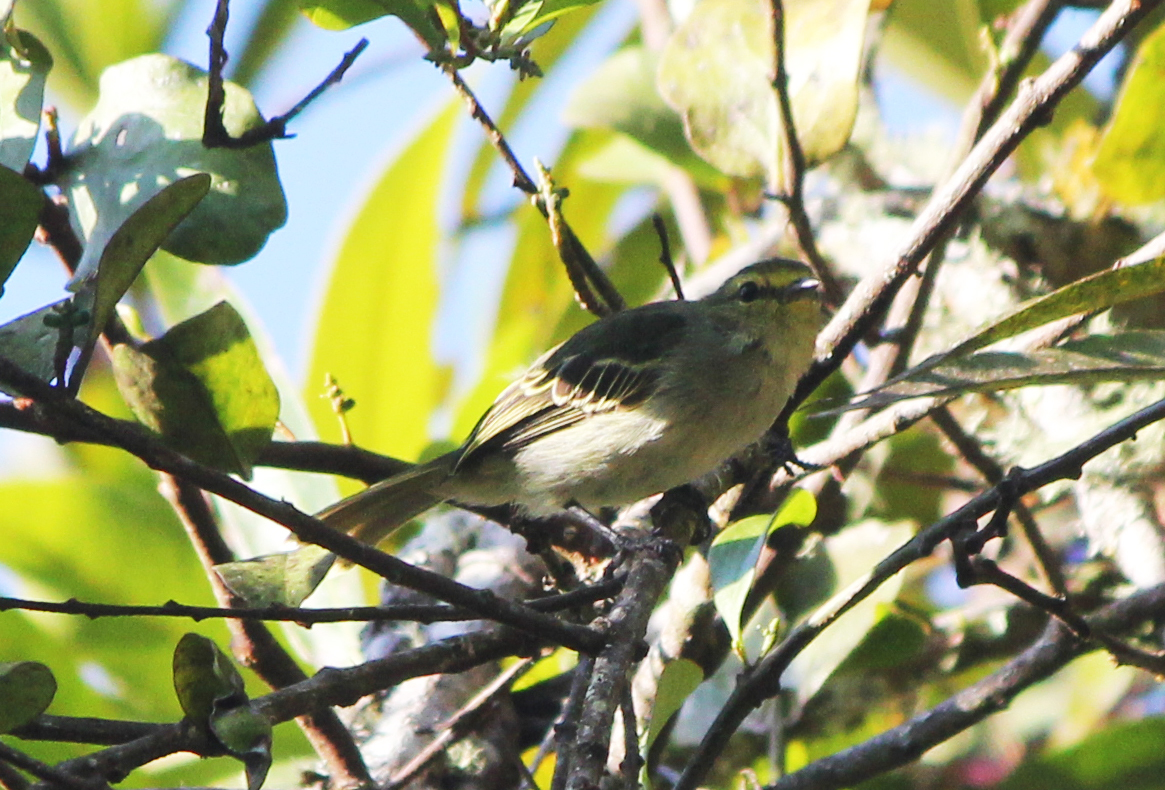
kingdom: Animalia
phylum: Chordata
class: Aves
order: Passeriformes
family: Tyrannidae
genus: Zimmerius
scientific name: Zimmerius chrysops
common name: Golden-faced tyrannulet
